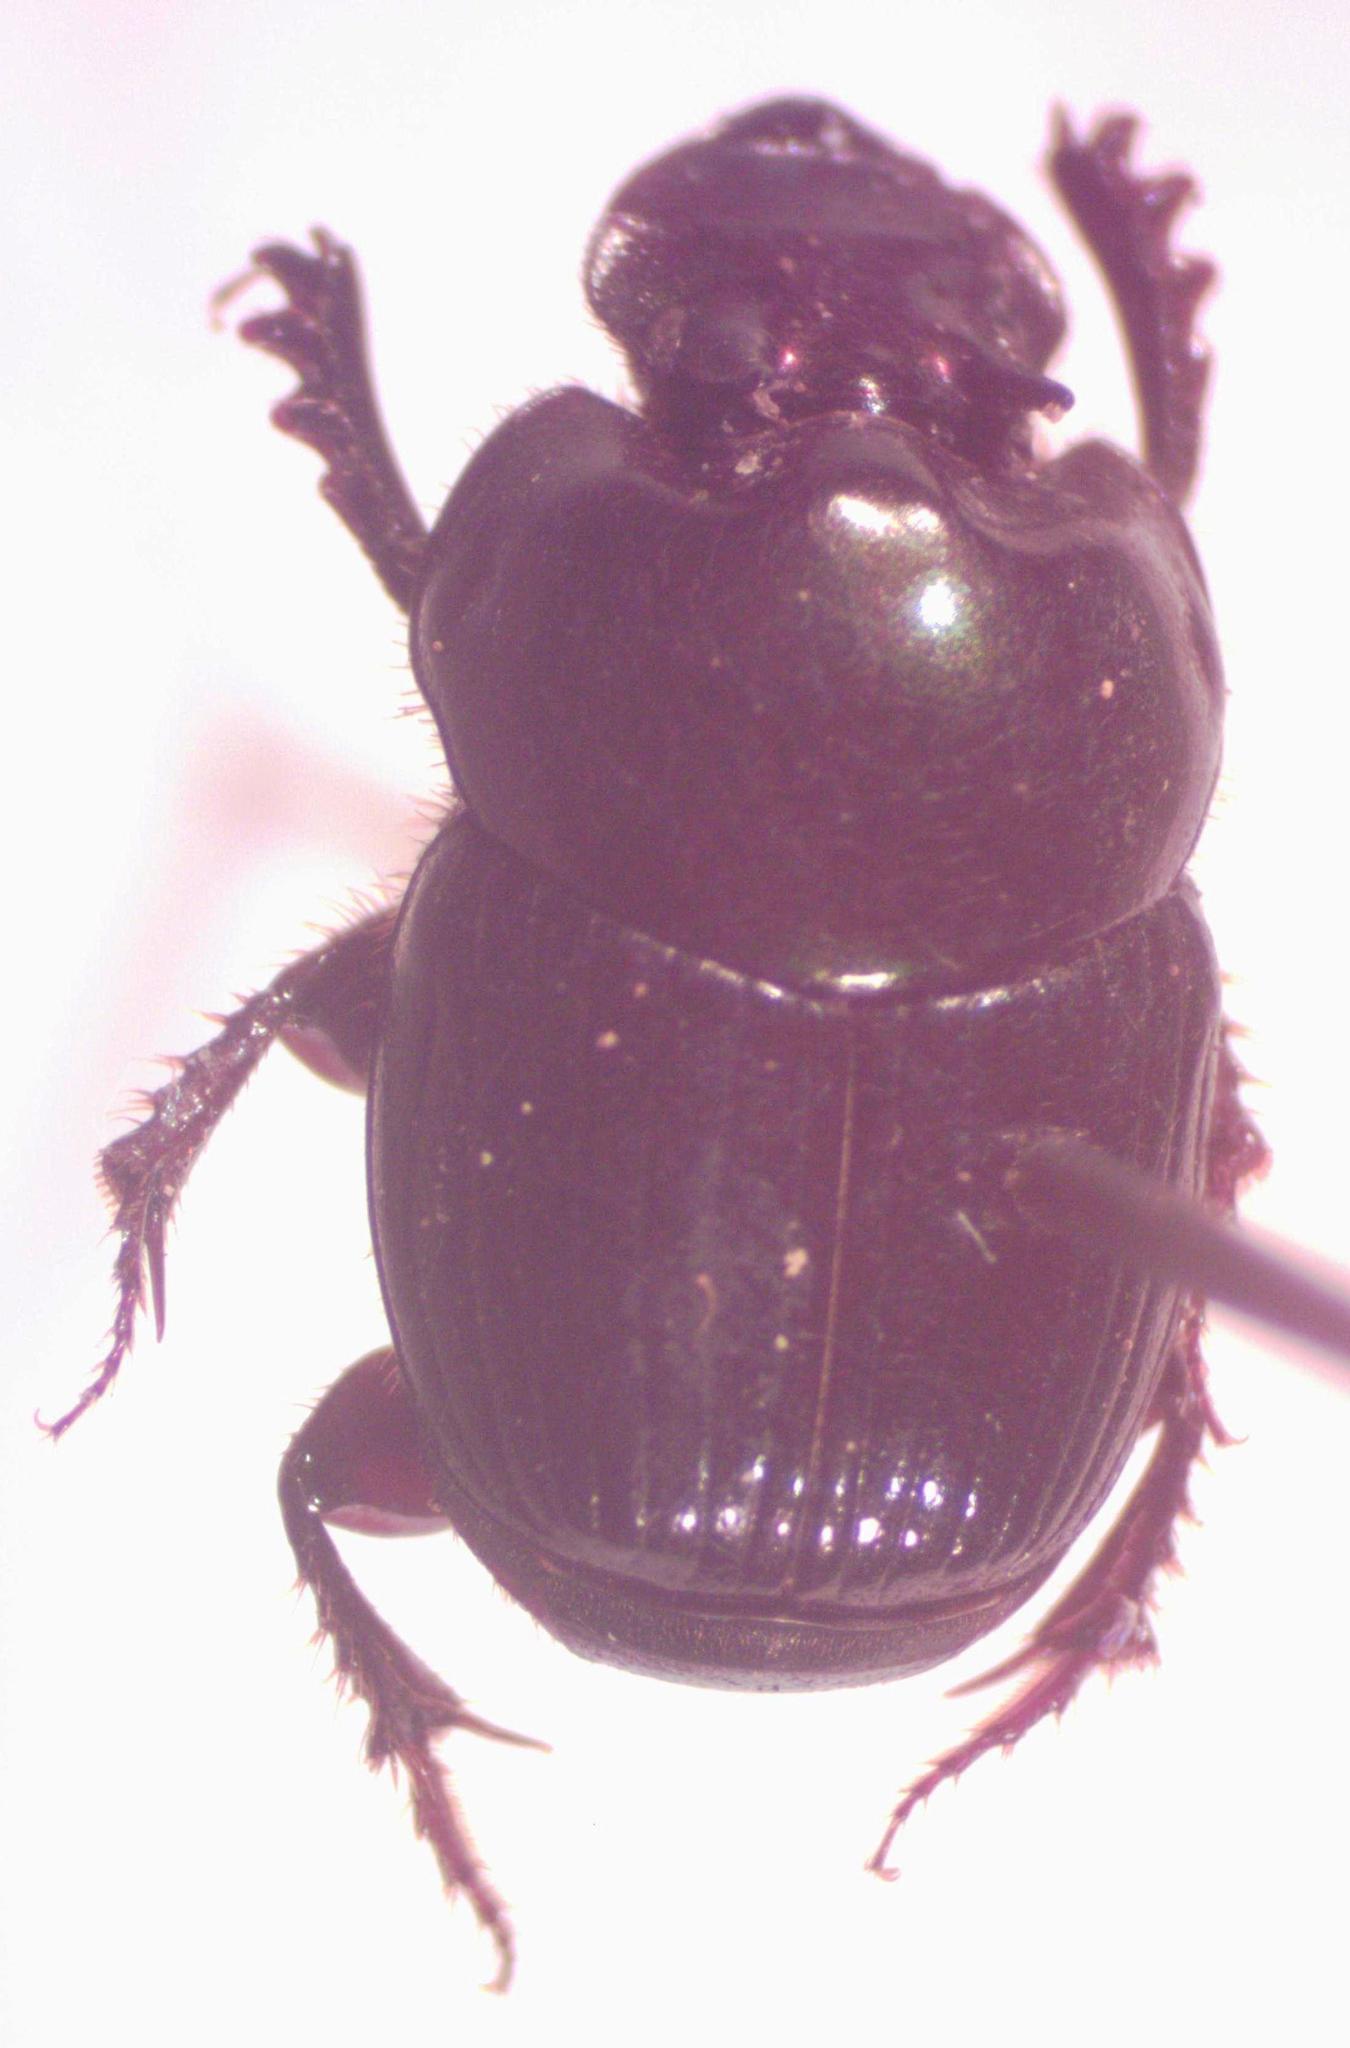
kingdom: Animalia
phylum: Arthropoda
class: Insecta
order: Coleoptera
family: Scarabaeidae
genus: Onthophagus
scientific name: Onthophagus acuminatus
